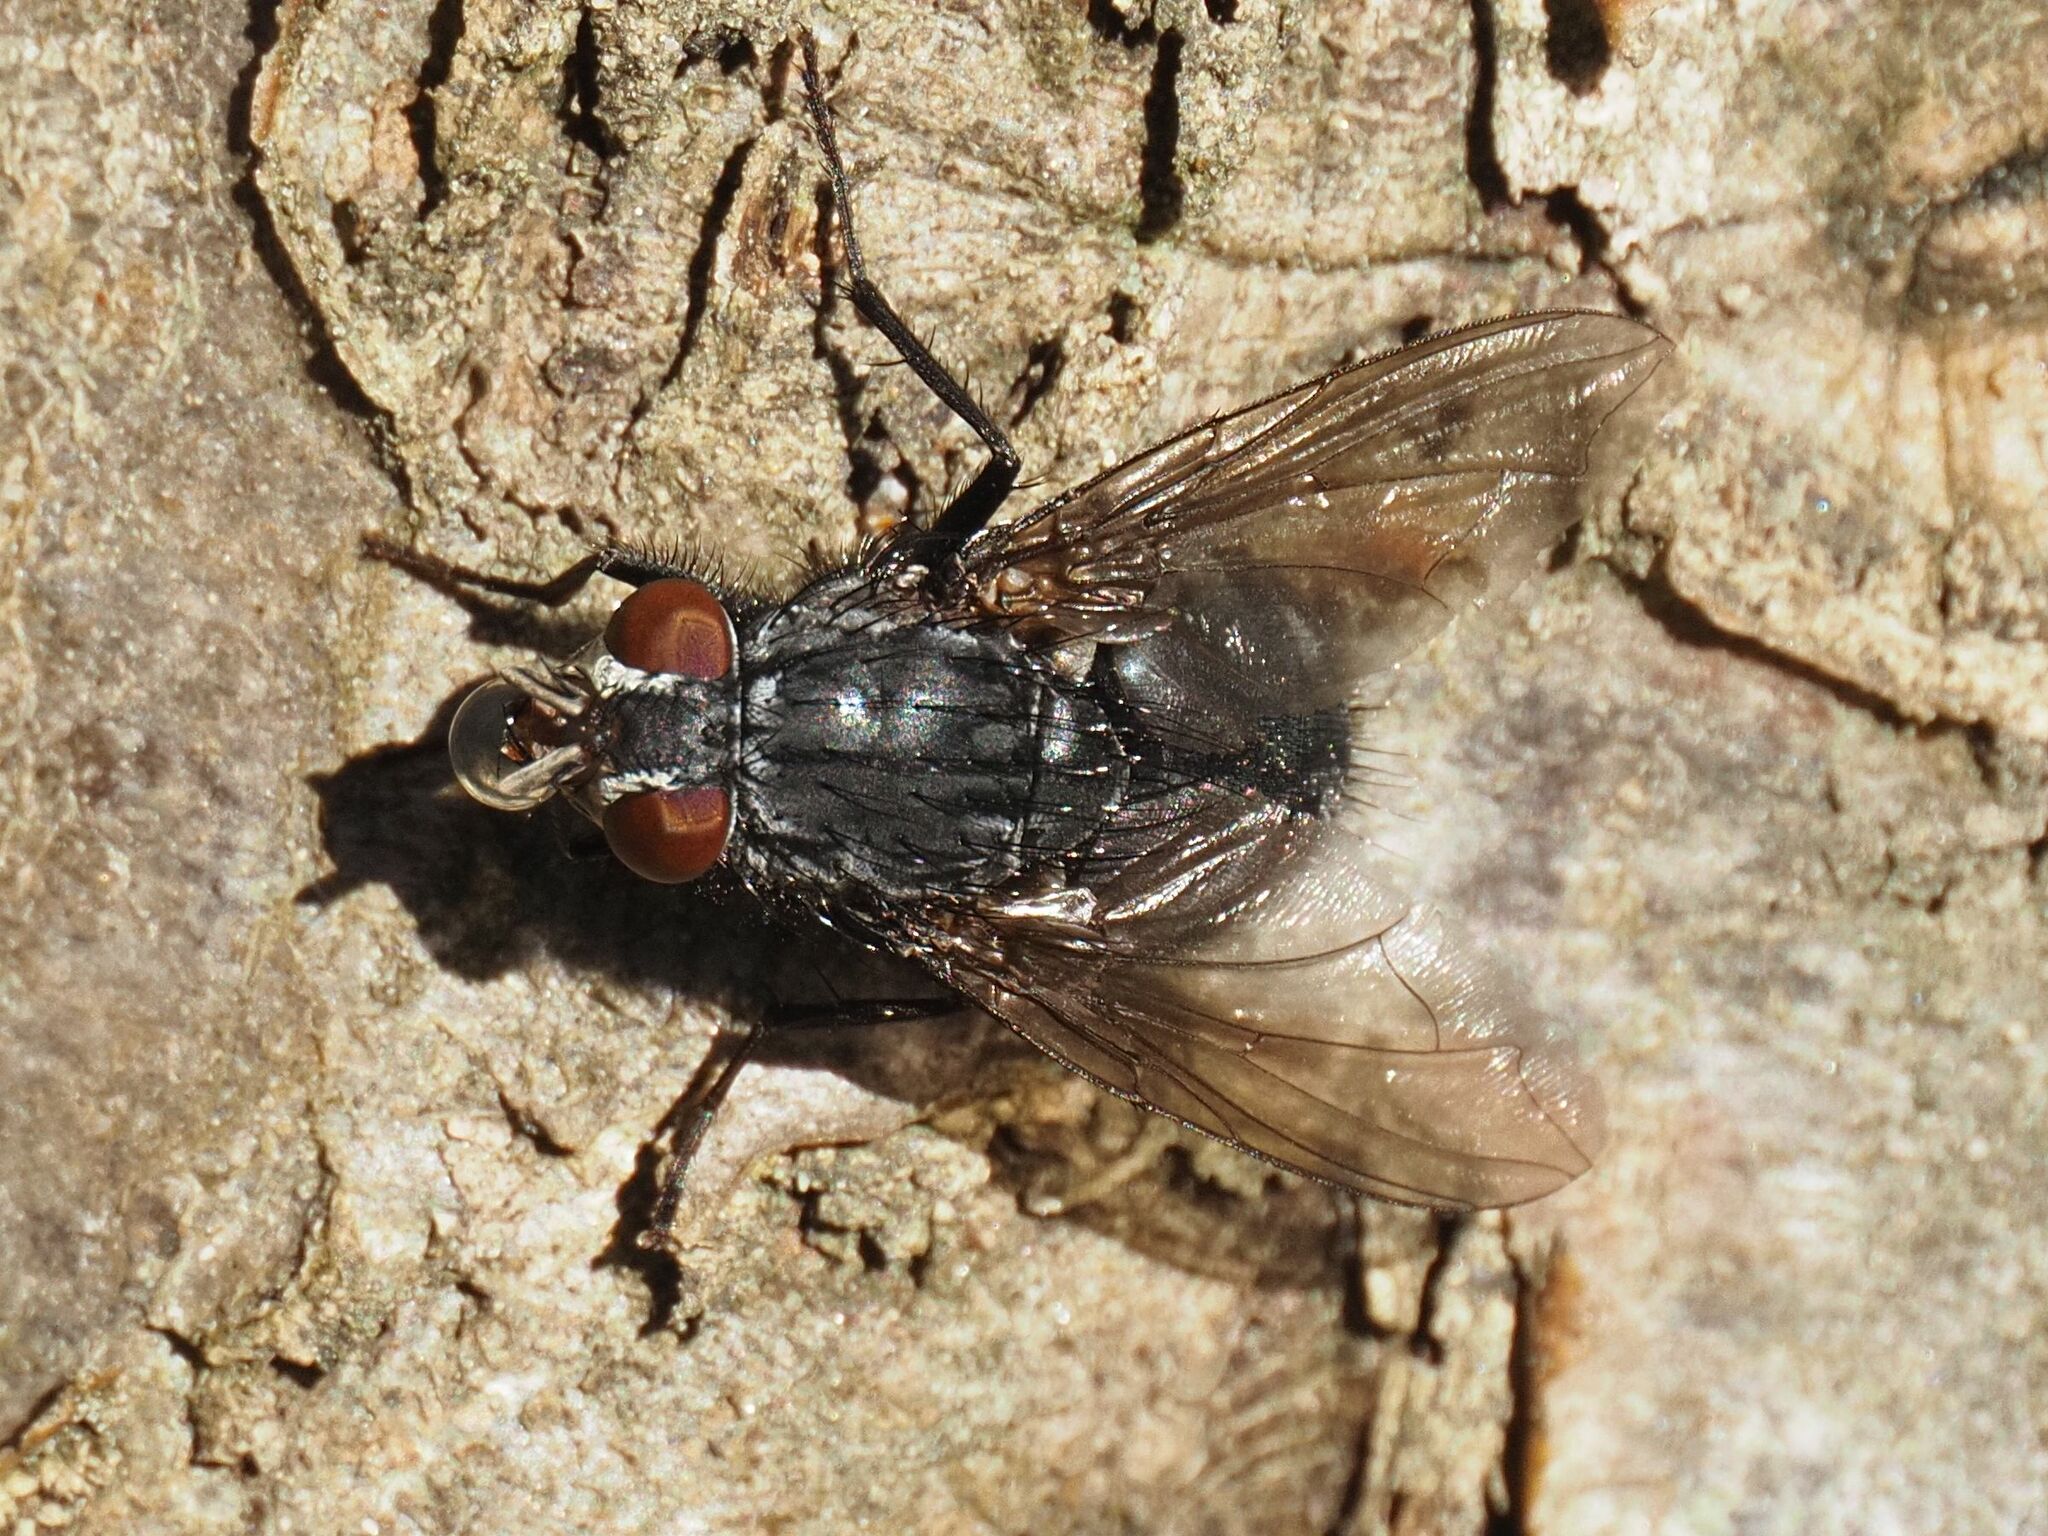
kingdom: Animalia
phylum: Arthropoda
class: Insecta
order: Diptera
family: Calliphoridae
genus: Calliphora
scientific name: Calliphora vicina
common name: Common blow flie
